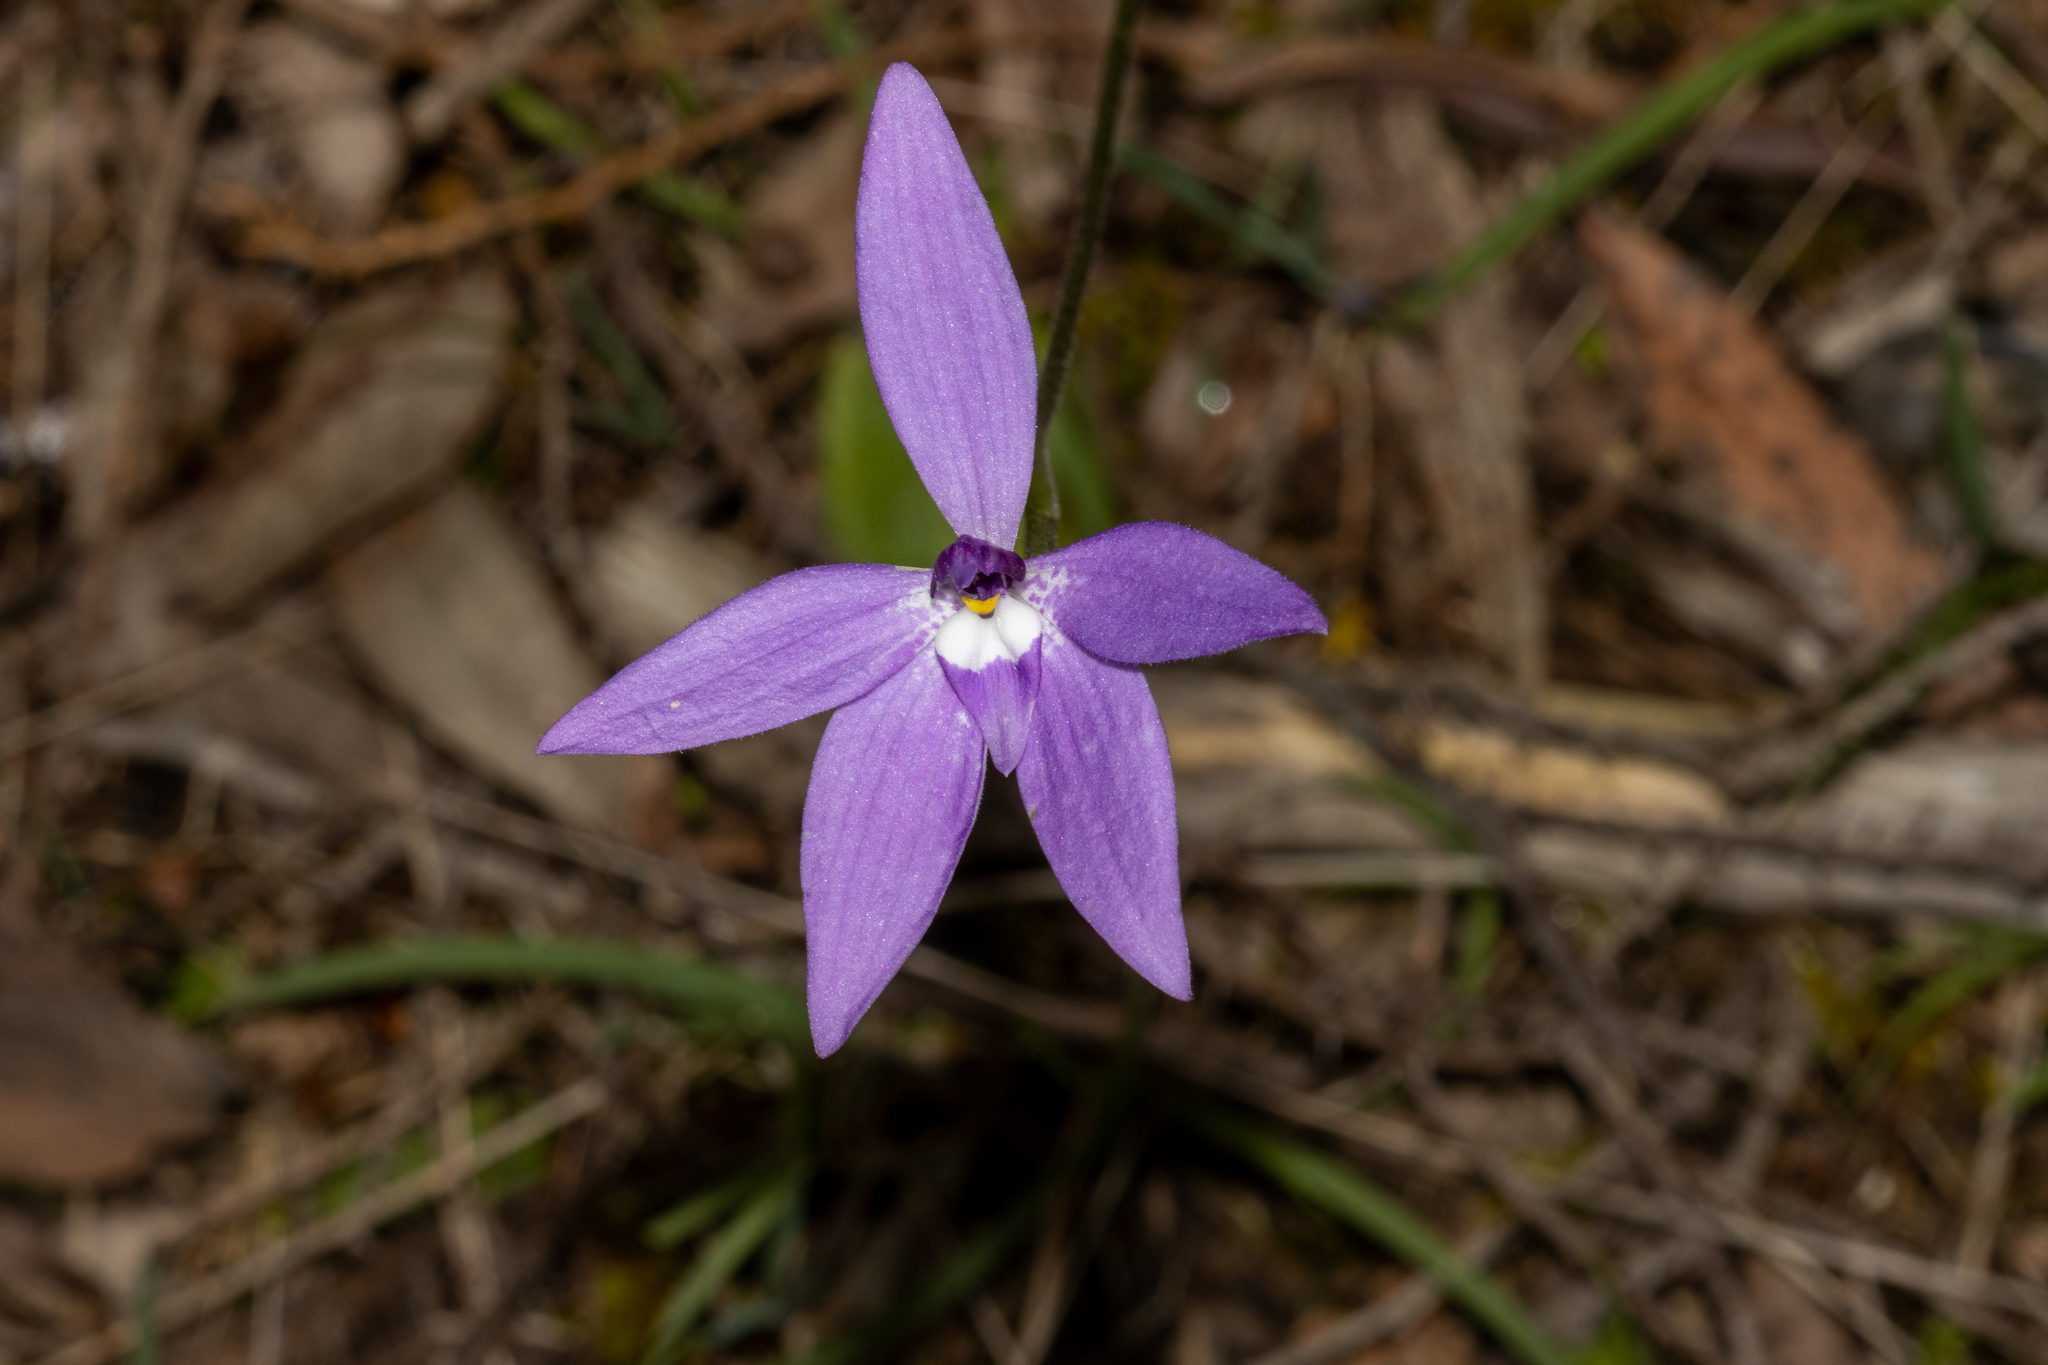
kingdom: Plantae
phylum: Tracheophyta
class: Liliopsida
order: Asparagales
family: Orchidaceae
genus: Caladenia
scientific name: Caladenia major
